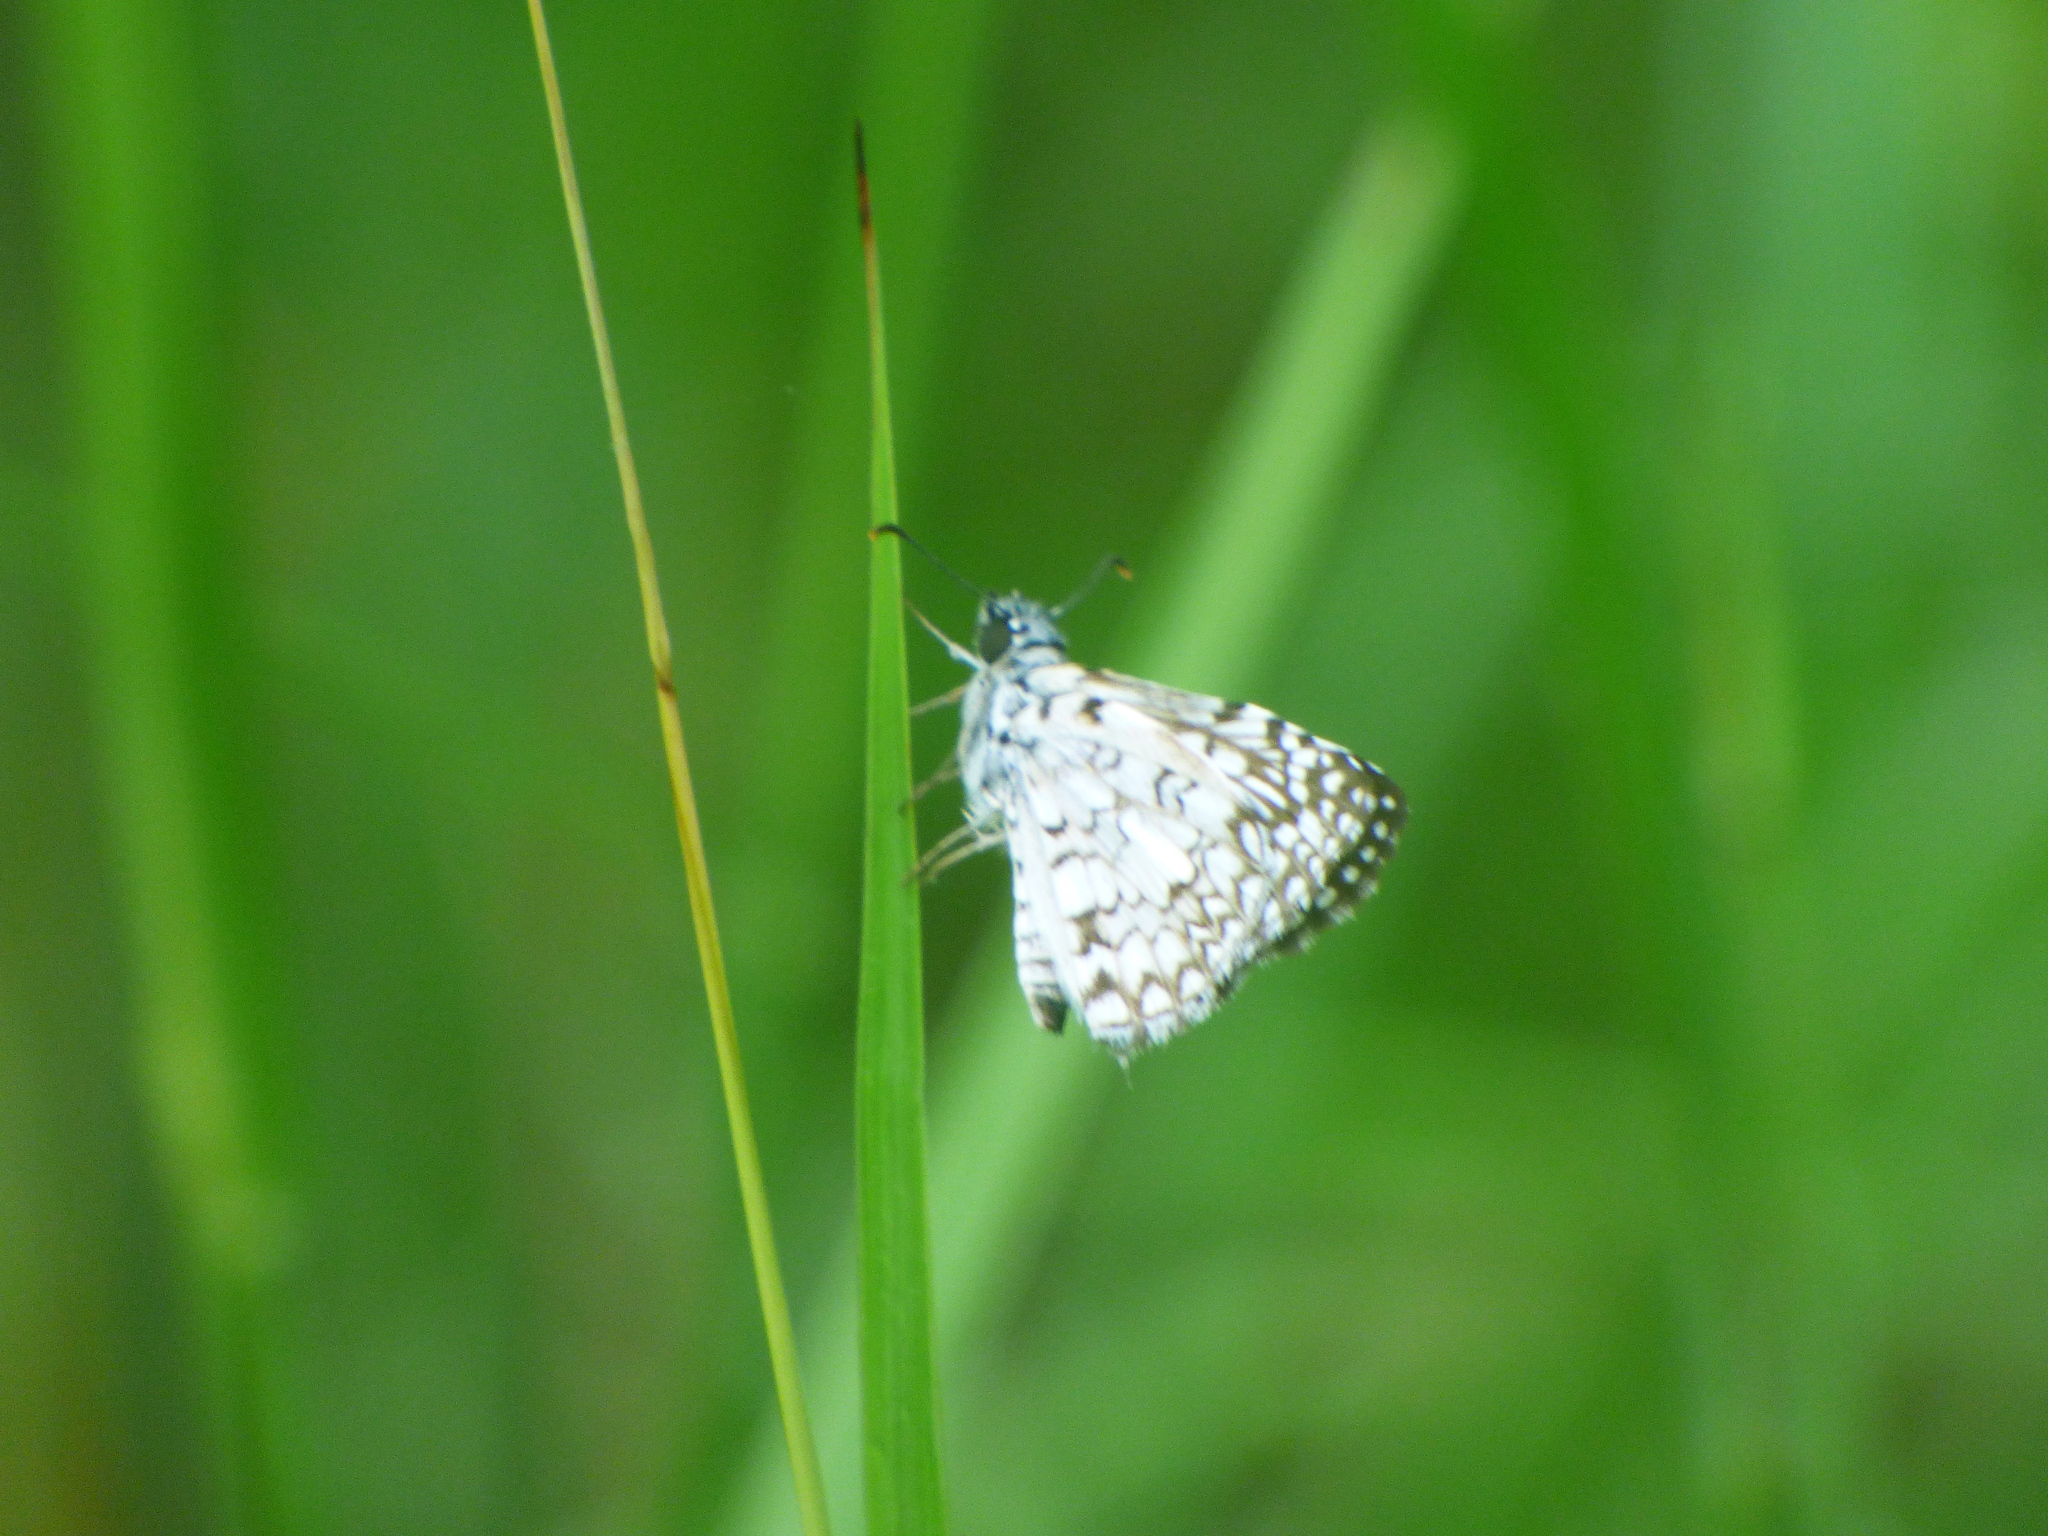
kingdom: Animalia
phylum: Arthropoda
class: Insecta
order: Lepidoptera
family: Hesperiidae
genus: Pyrgus
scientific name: Pyrgus oileus
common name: Tropical checkered-skipper
